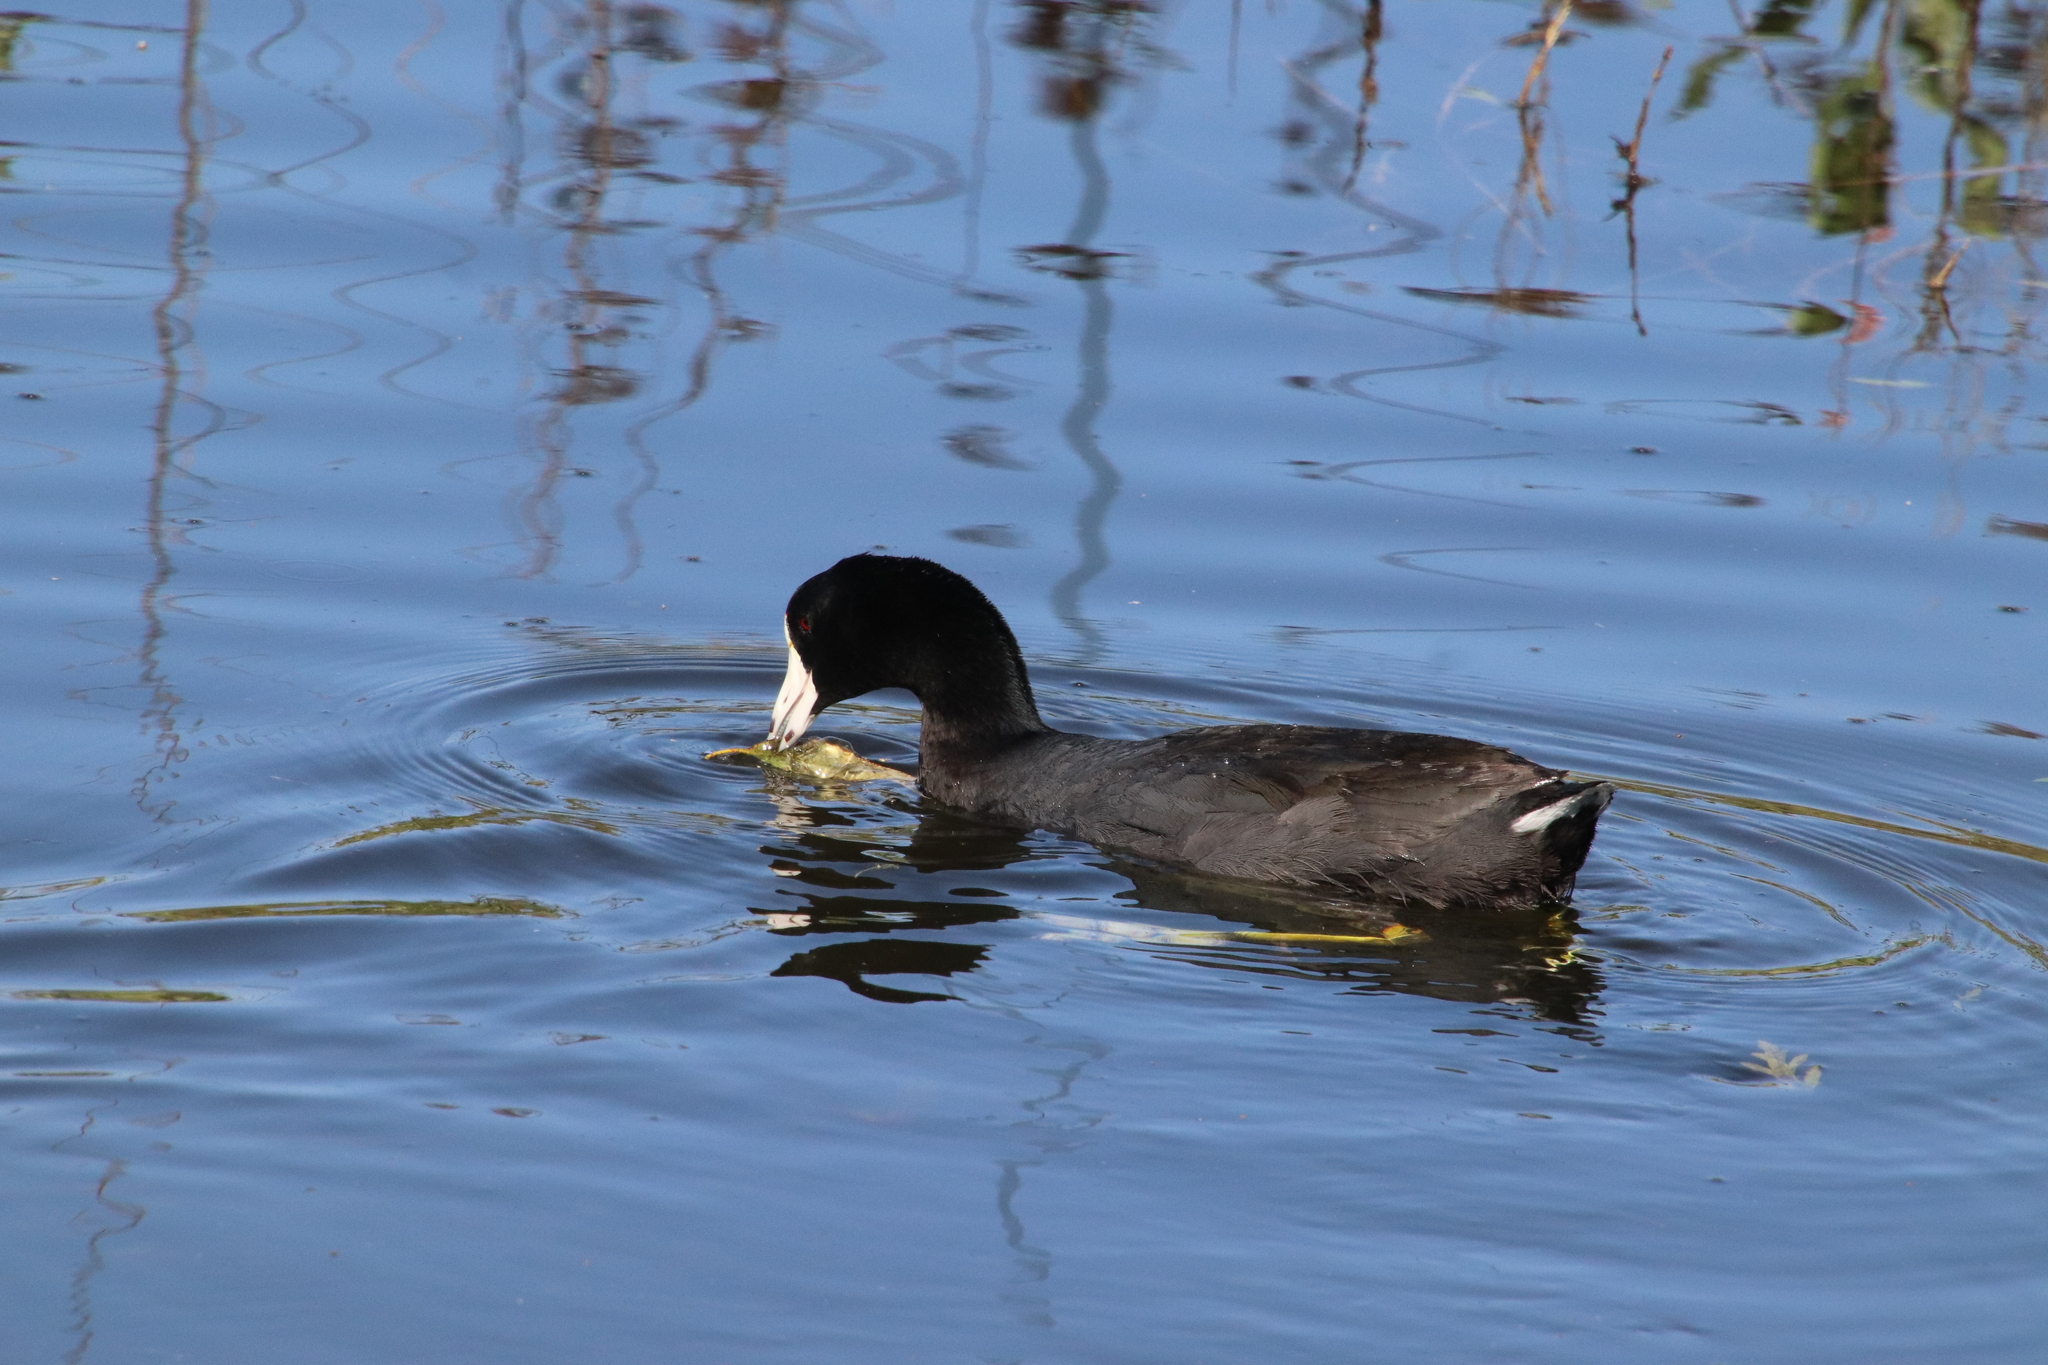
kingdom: Animalia
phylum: Chordata
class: Aves
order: Gruiformes
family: Rallidae
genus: Fulica
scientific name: Fulica americana
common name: American coot
